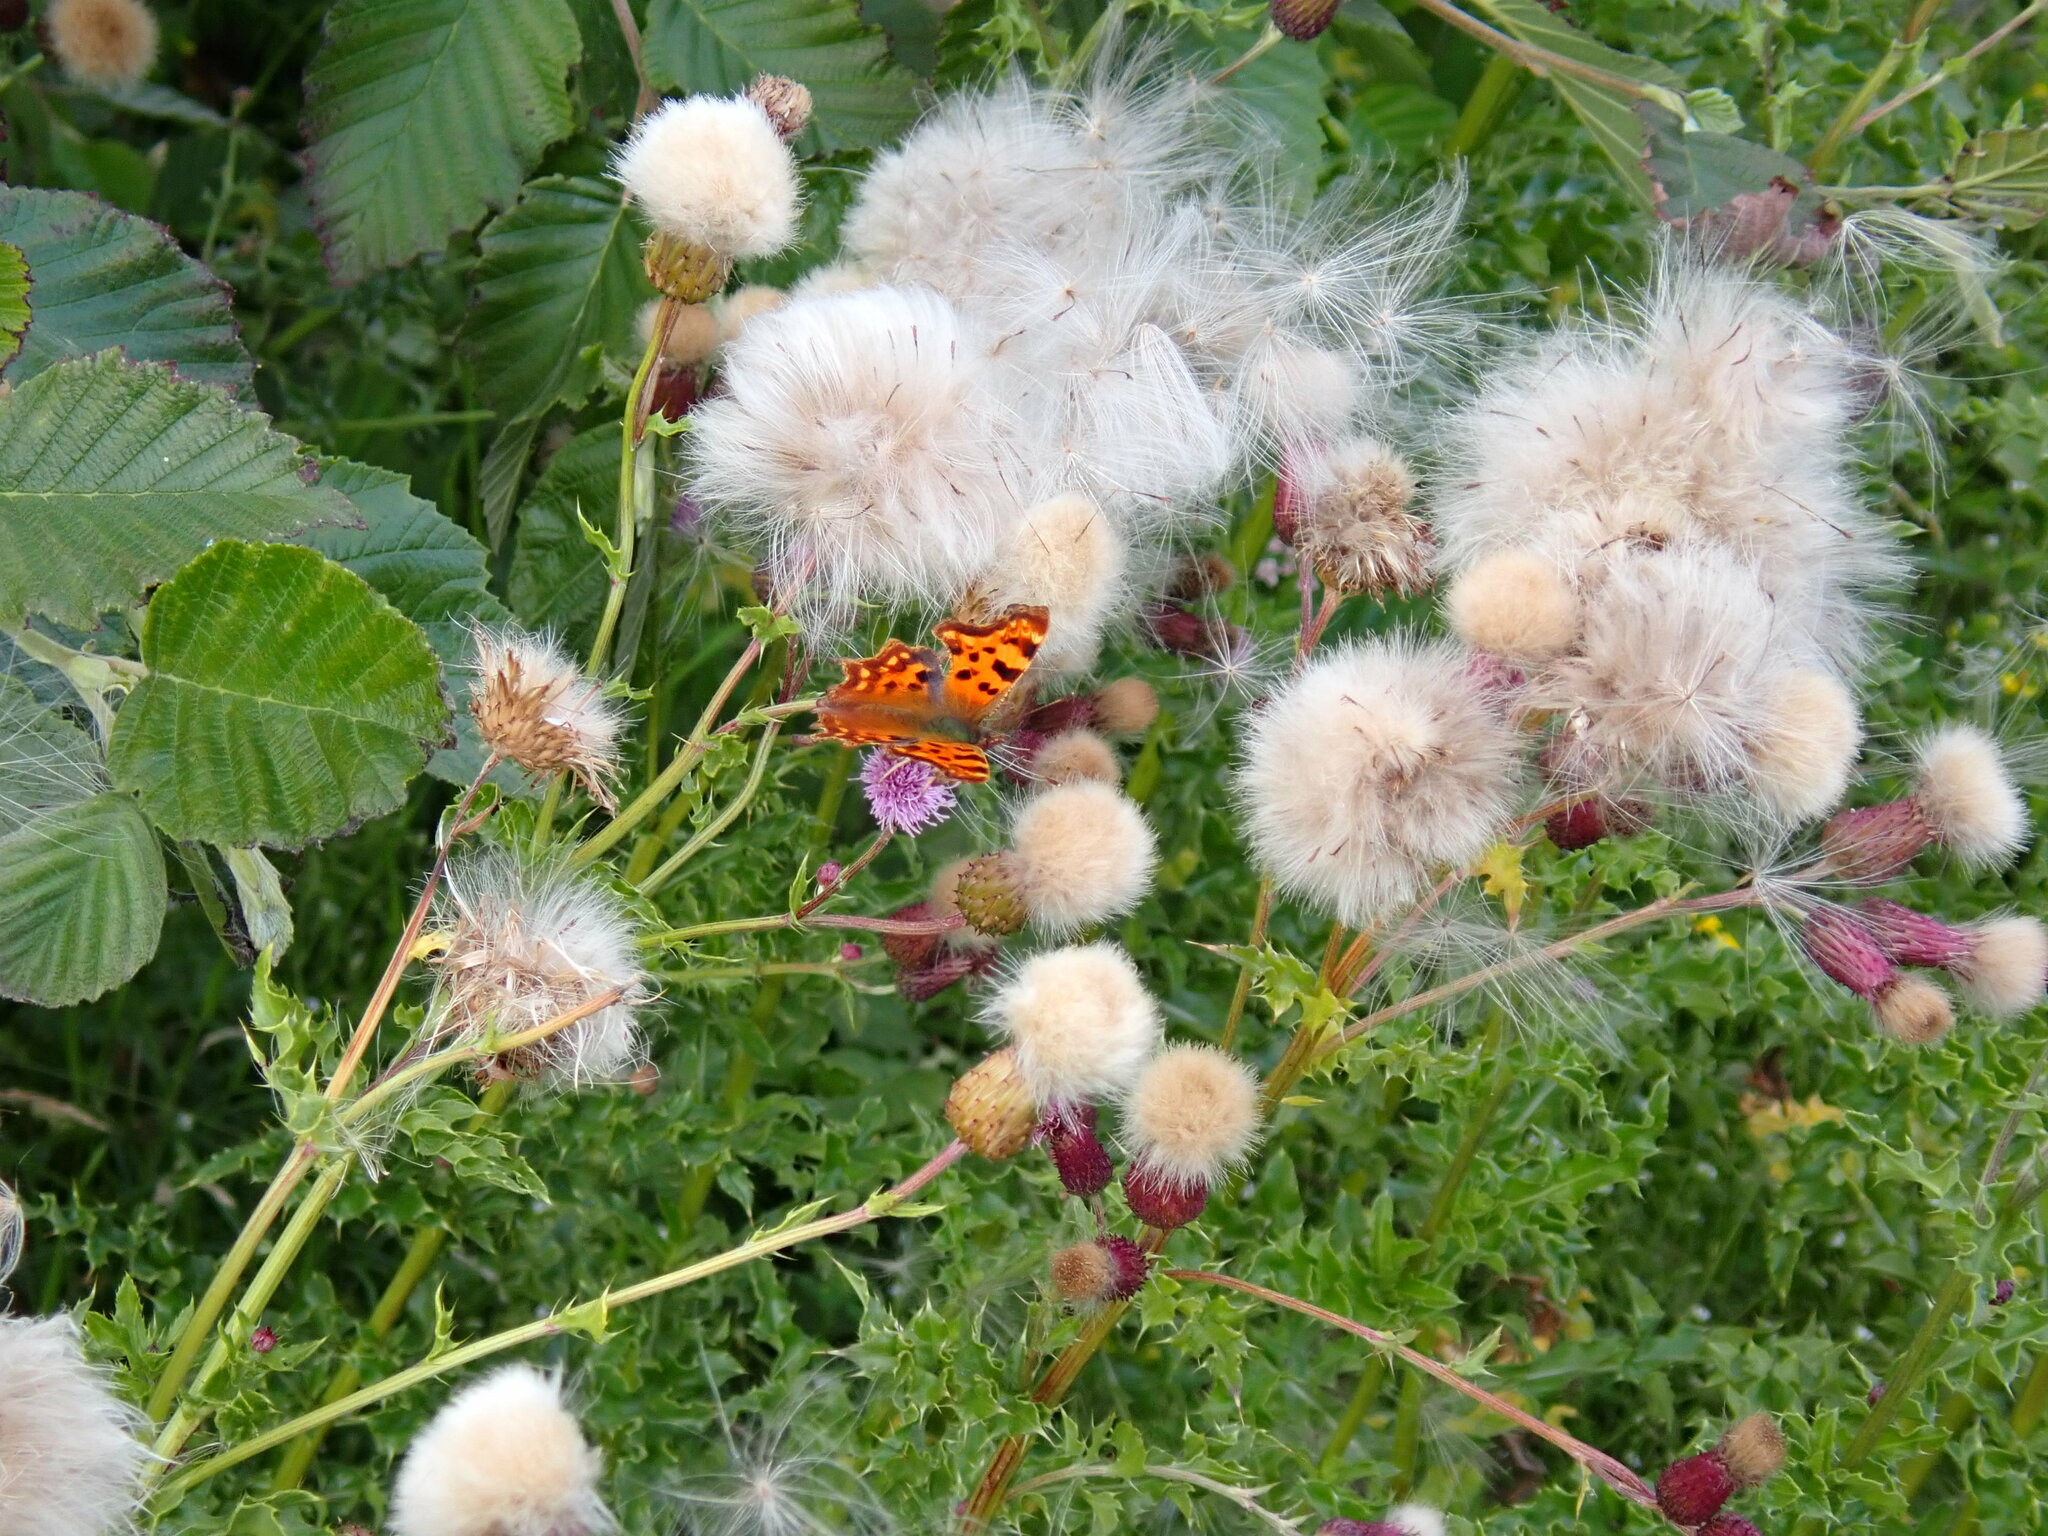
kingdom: Animalia
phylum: Arthropoda
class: Insecta
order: Lepidoptera
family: Nymphalidae
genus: Polygonia
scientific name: Polygonia c-album
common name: Comma
